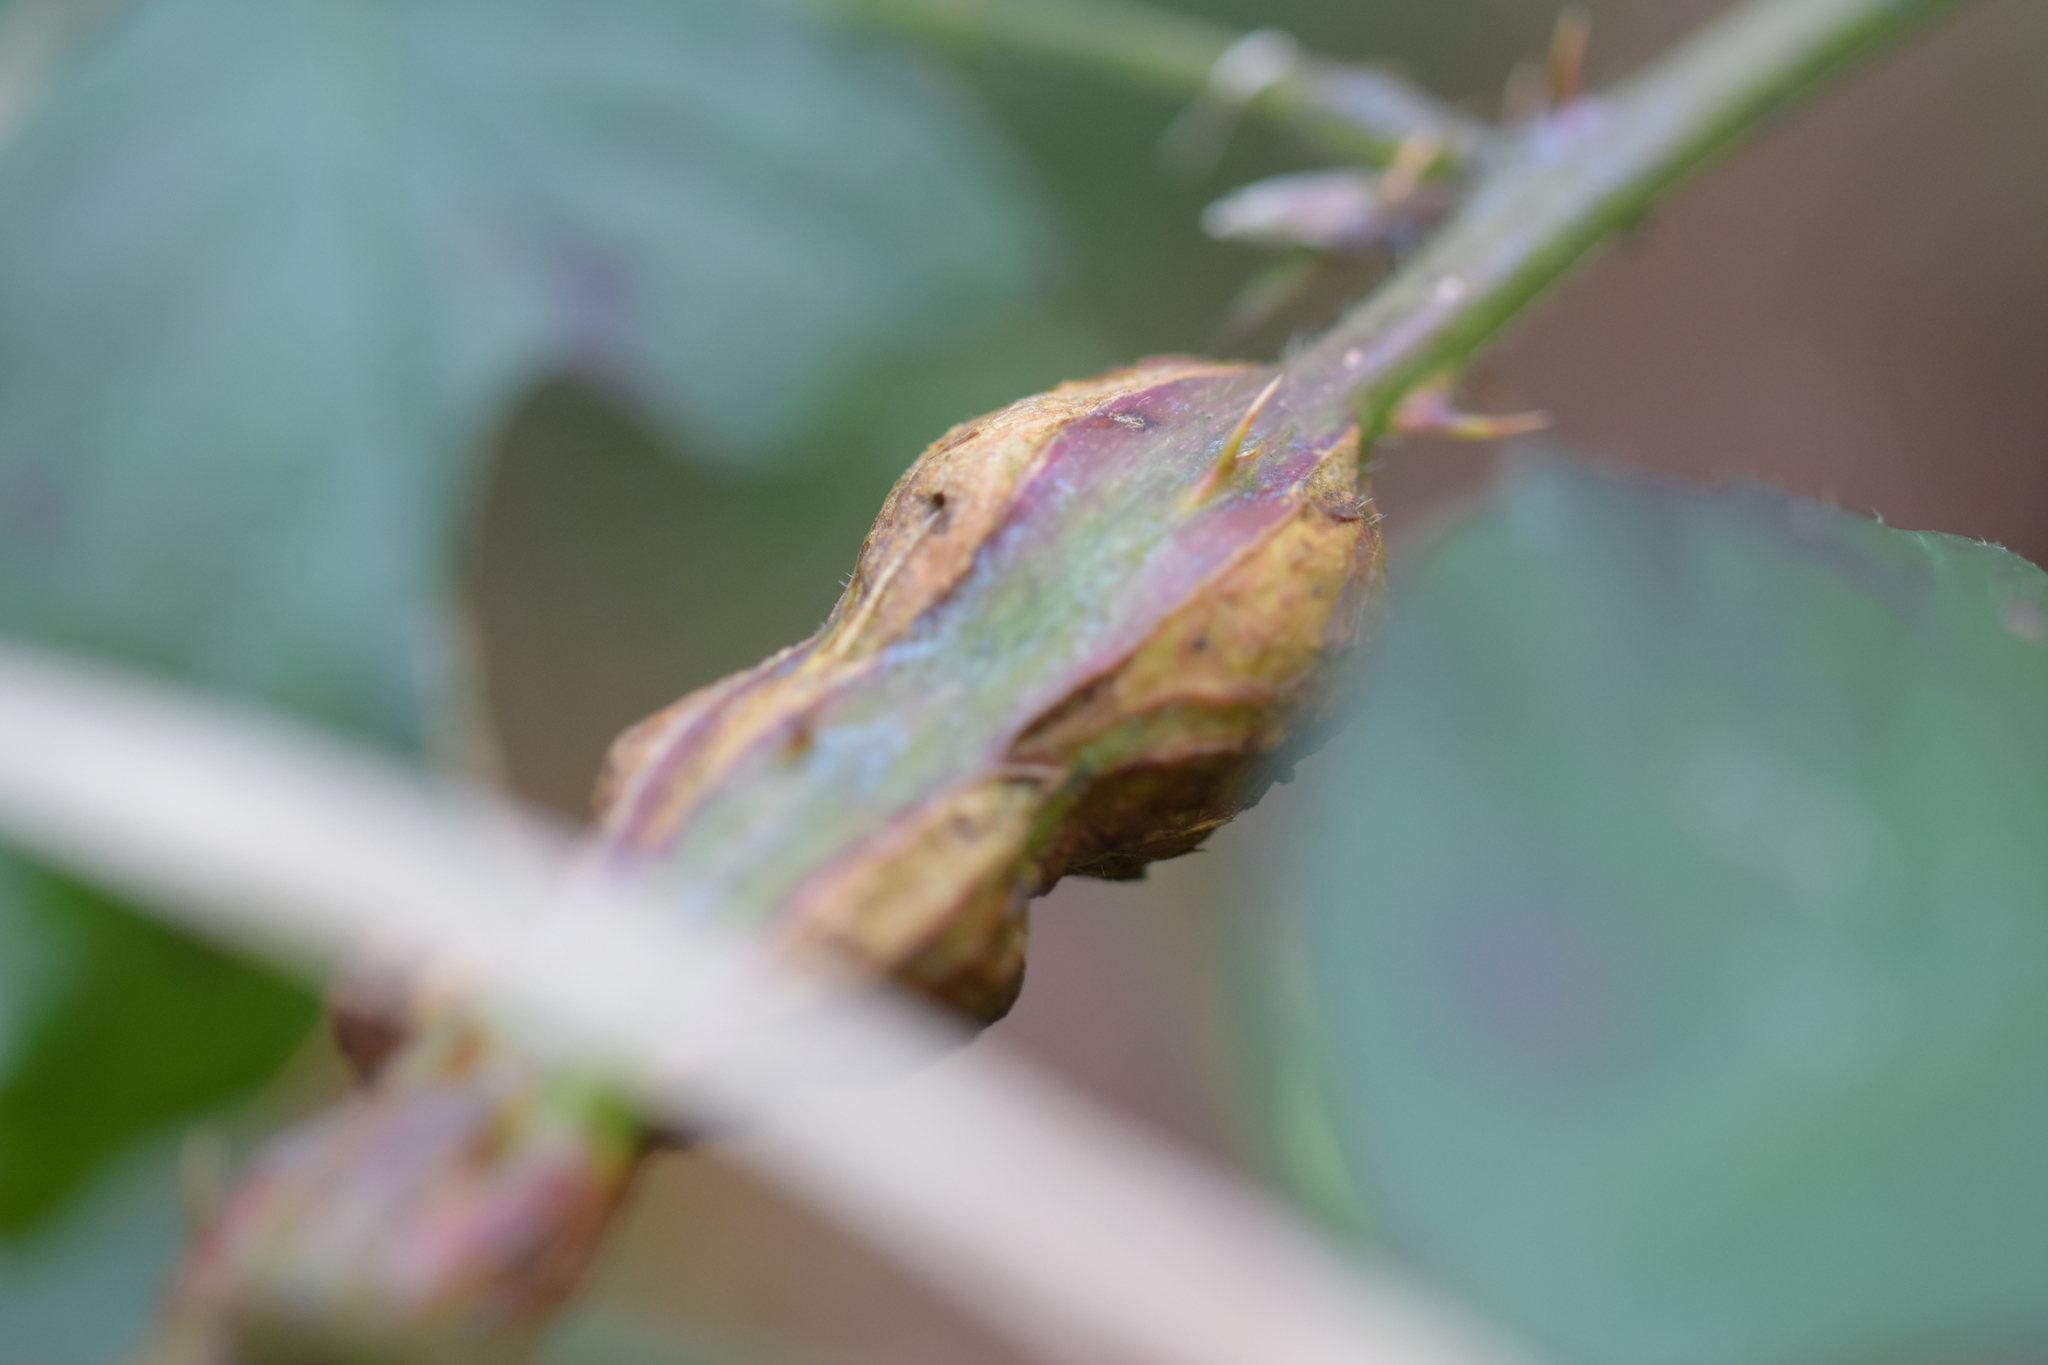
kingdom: Animalia
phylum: Arthropoda
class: Insecta
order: Diptera
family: Cecidomyiidae
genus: Lasioptera
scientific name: Lasioptera rubi
